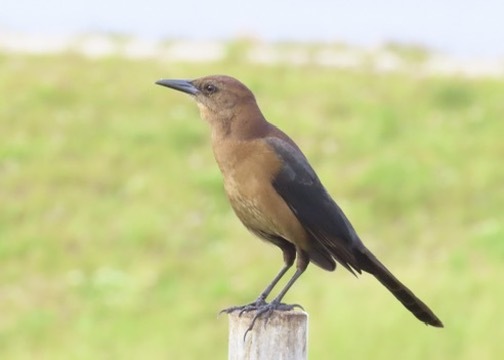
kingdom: Animalia
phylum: Chordata
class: Aves
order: Passeriformes
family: Icteridae
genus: Quiscalus
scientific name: Quiscalus major
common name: Boat-tailed grackle
